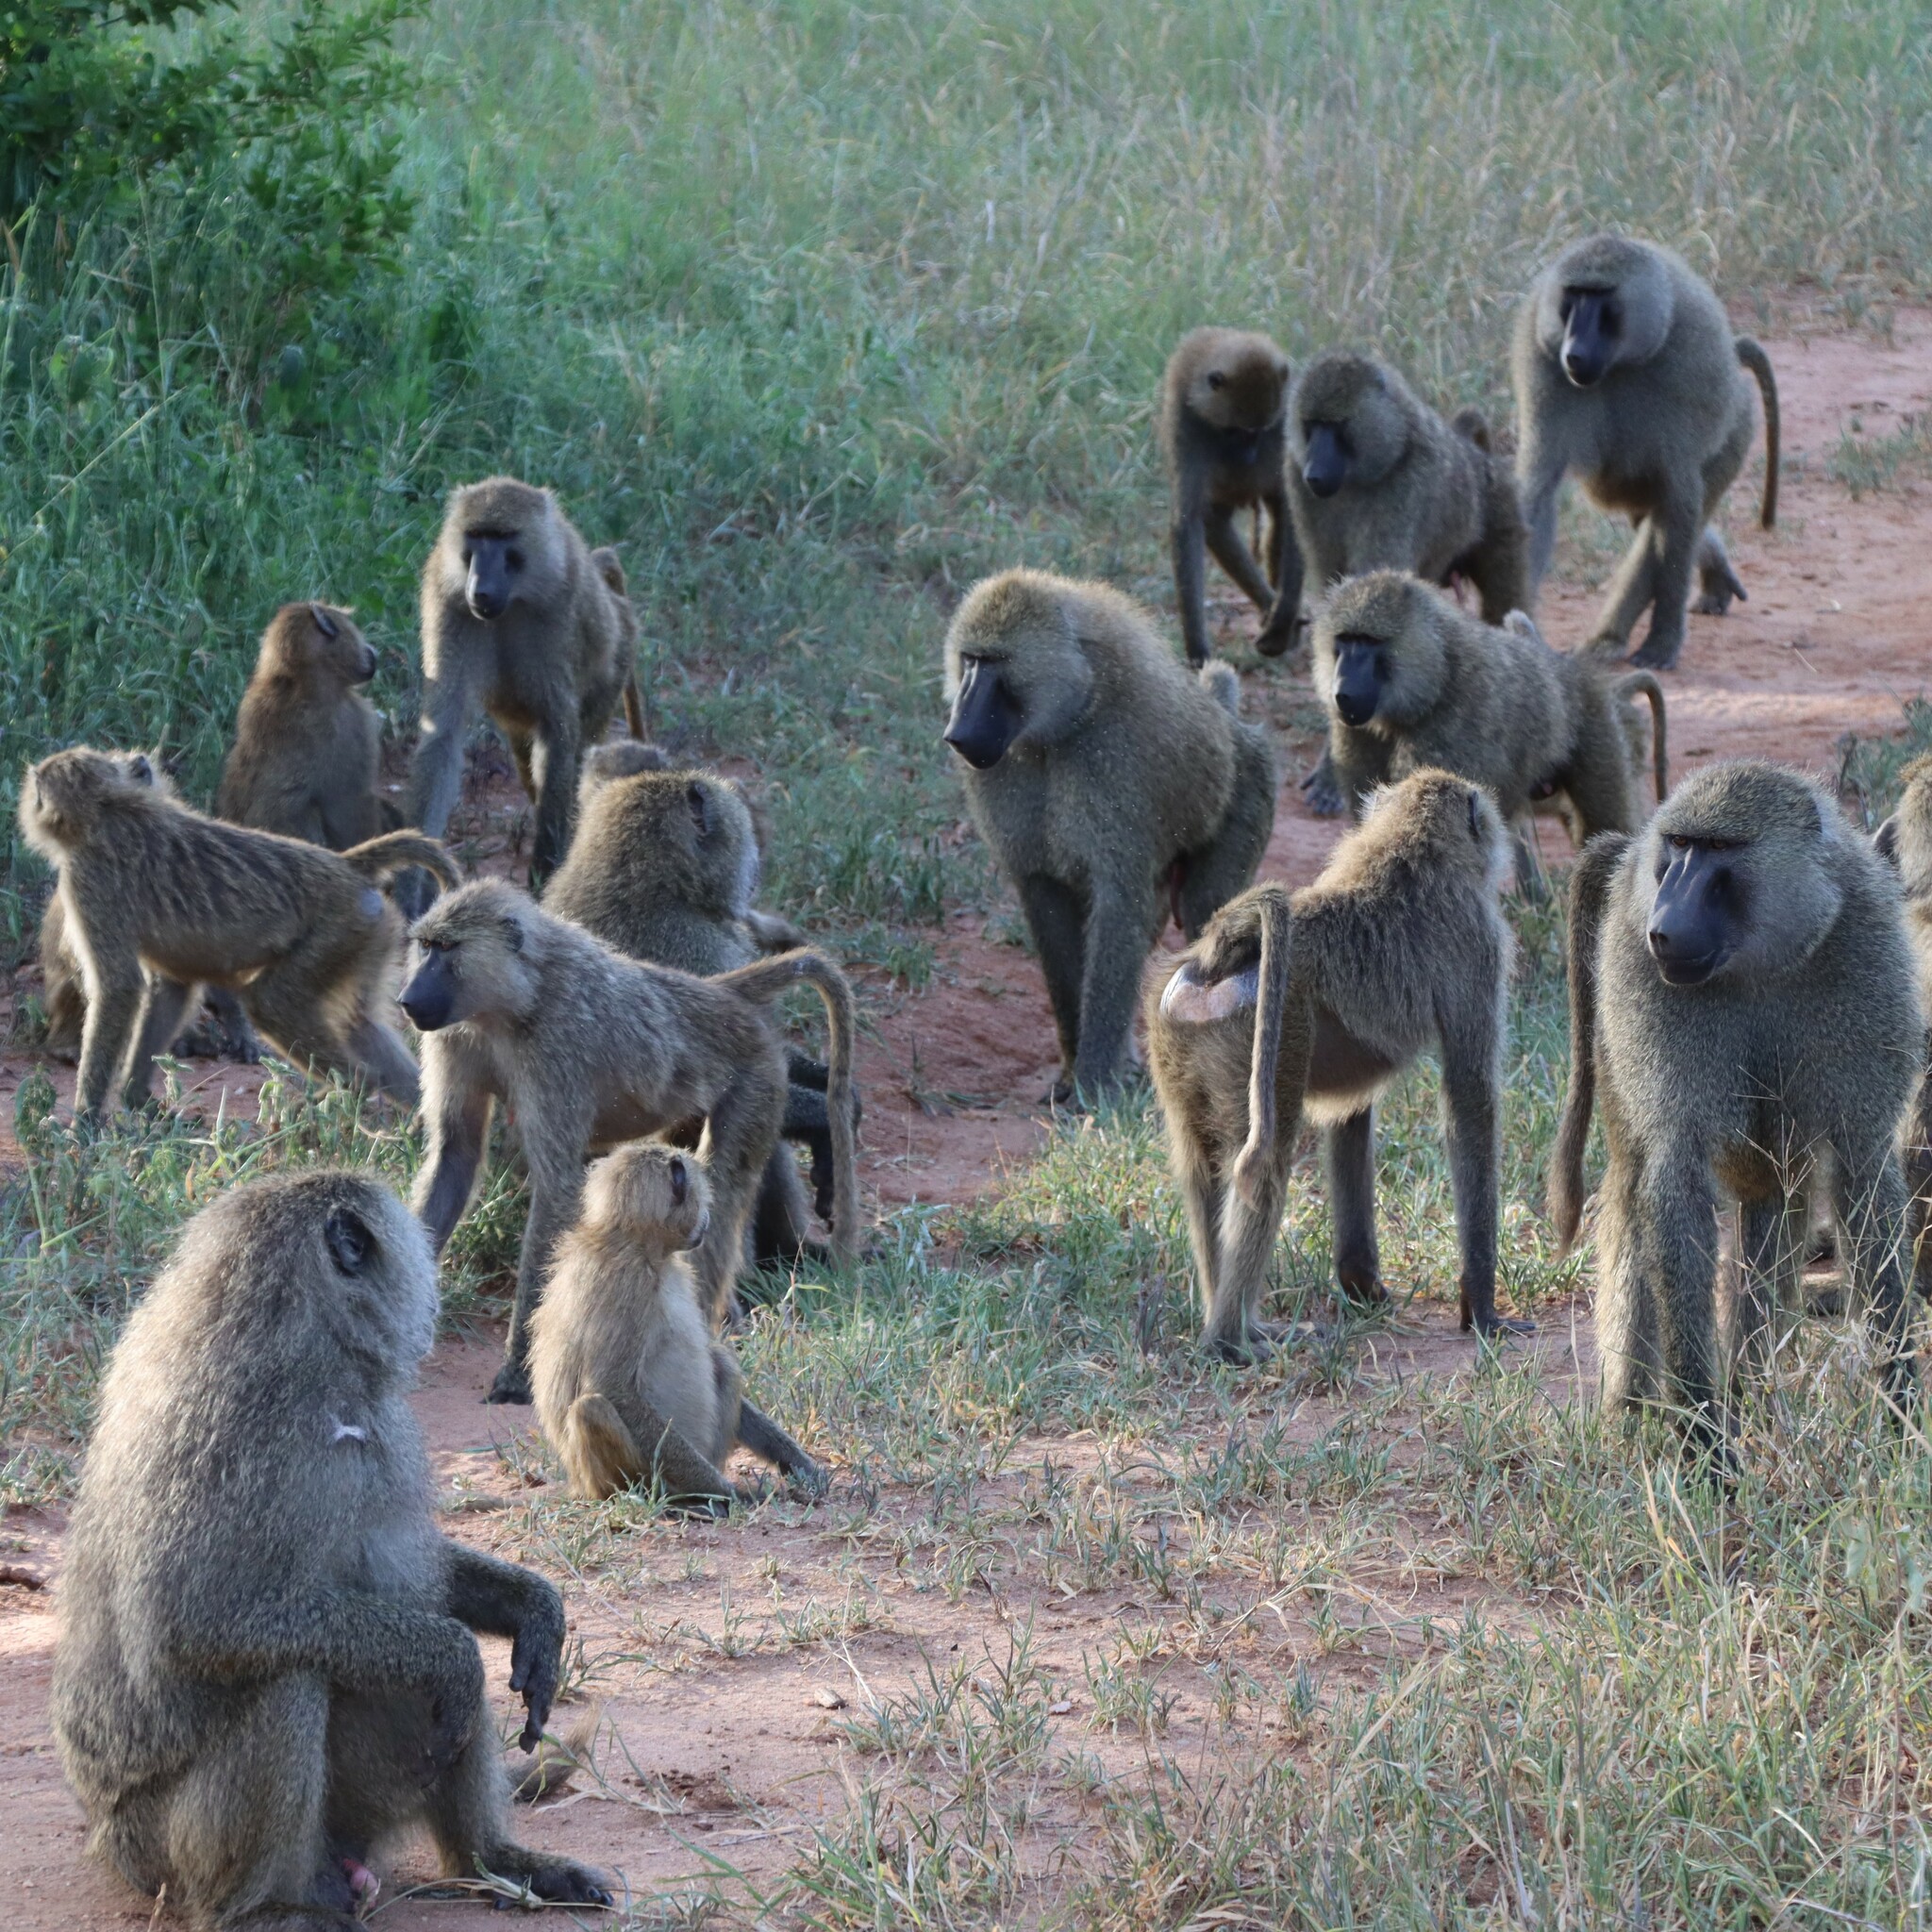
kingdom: Animalia
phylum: Chordata
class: Mammalia
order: Primates
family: Cercopithecidae
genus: Papio
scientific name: Papio anubis
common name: Olive baboon
